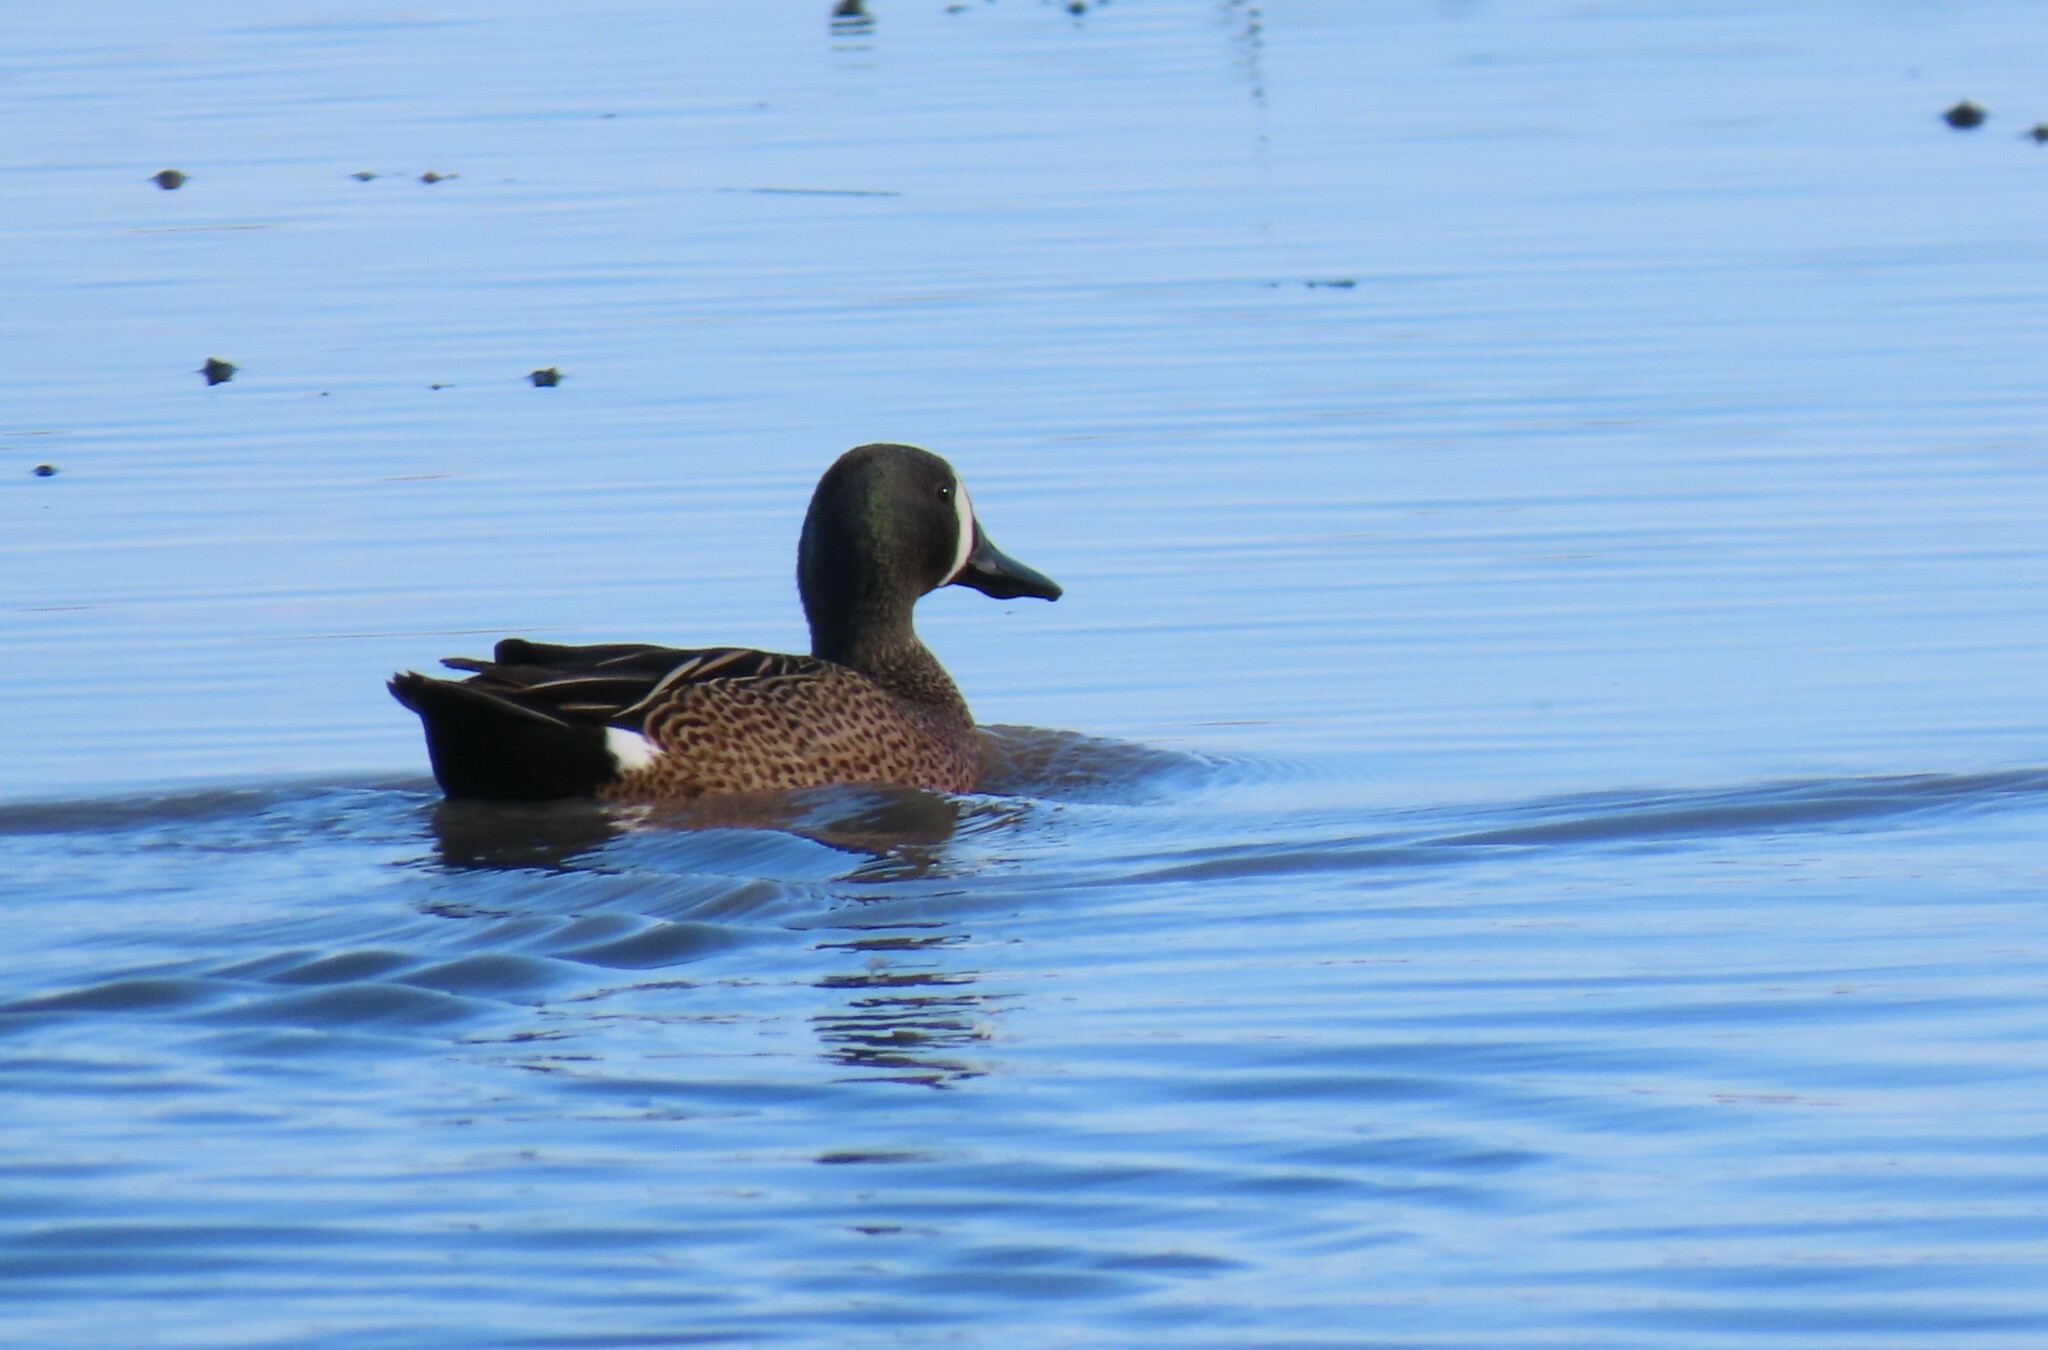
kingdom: Animalia
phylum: Chordata
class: Aves
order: Anseriformes
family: Anatidae
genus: Spatula
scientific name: Spatula discors
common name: Blue-winged teal
